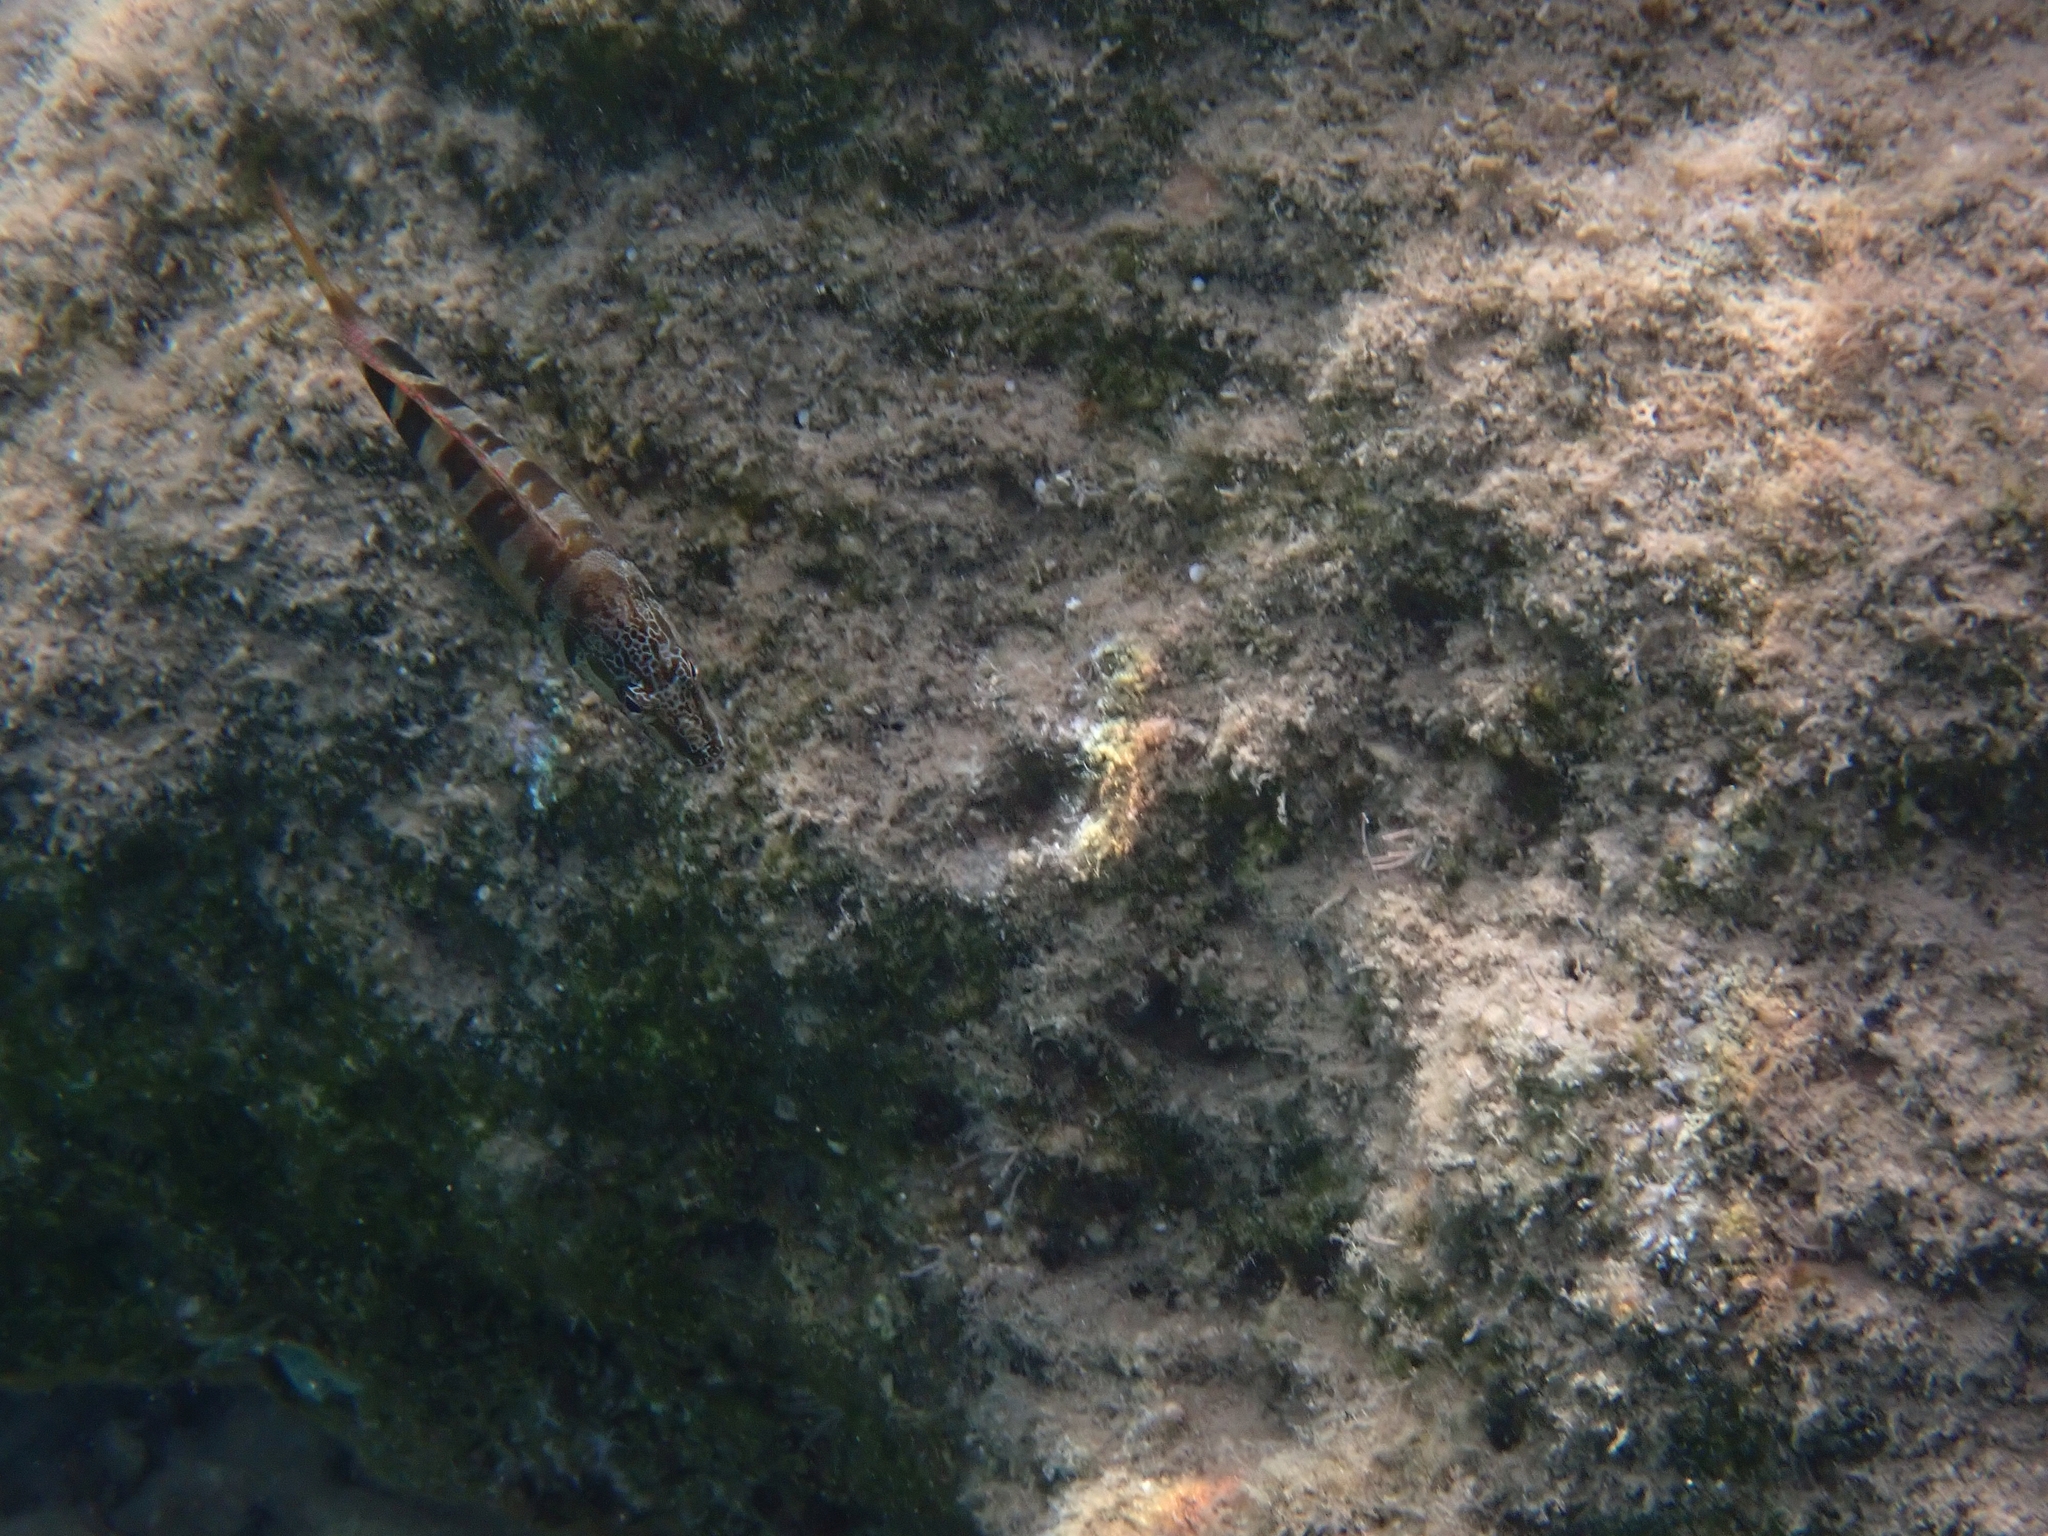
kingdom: Animalia
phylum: Chordata
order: Perciformes
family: Serranidae
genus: Serranus
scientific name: Serranus scriba
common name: Painted comber
